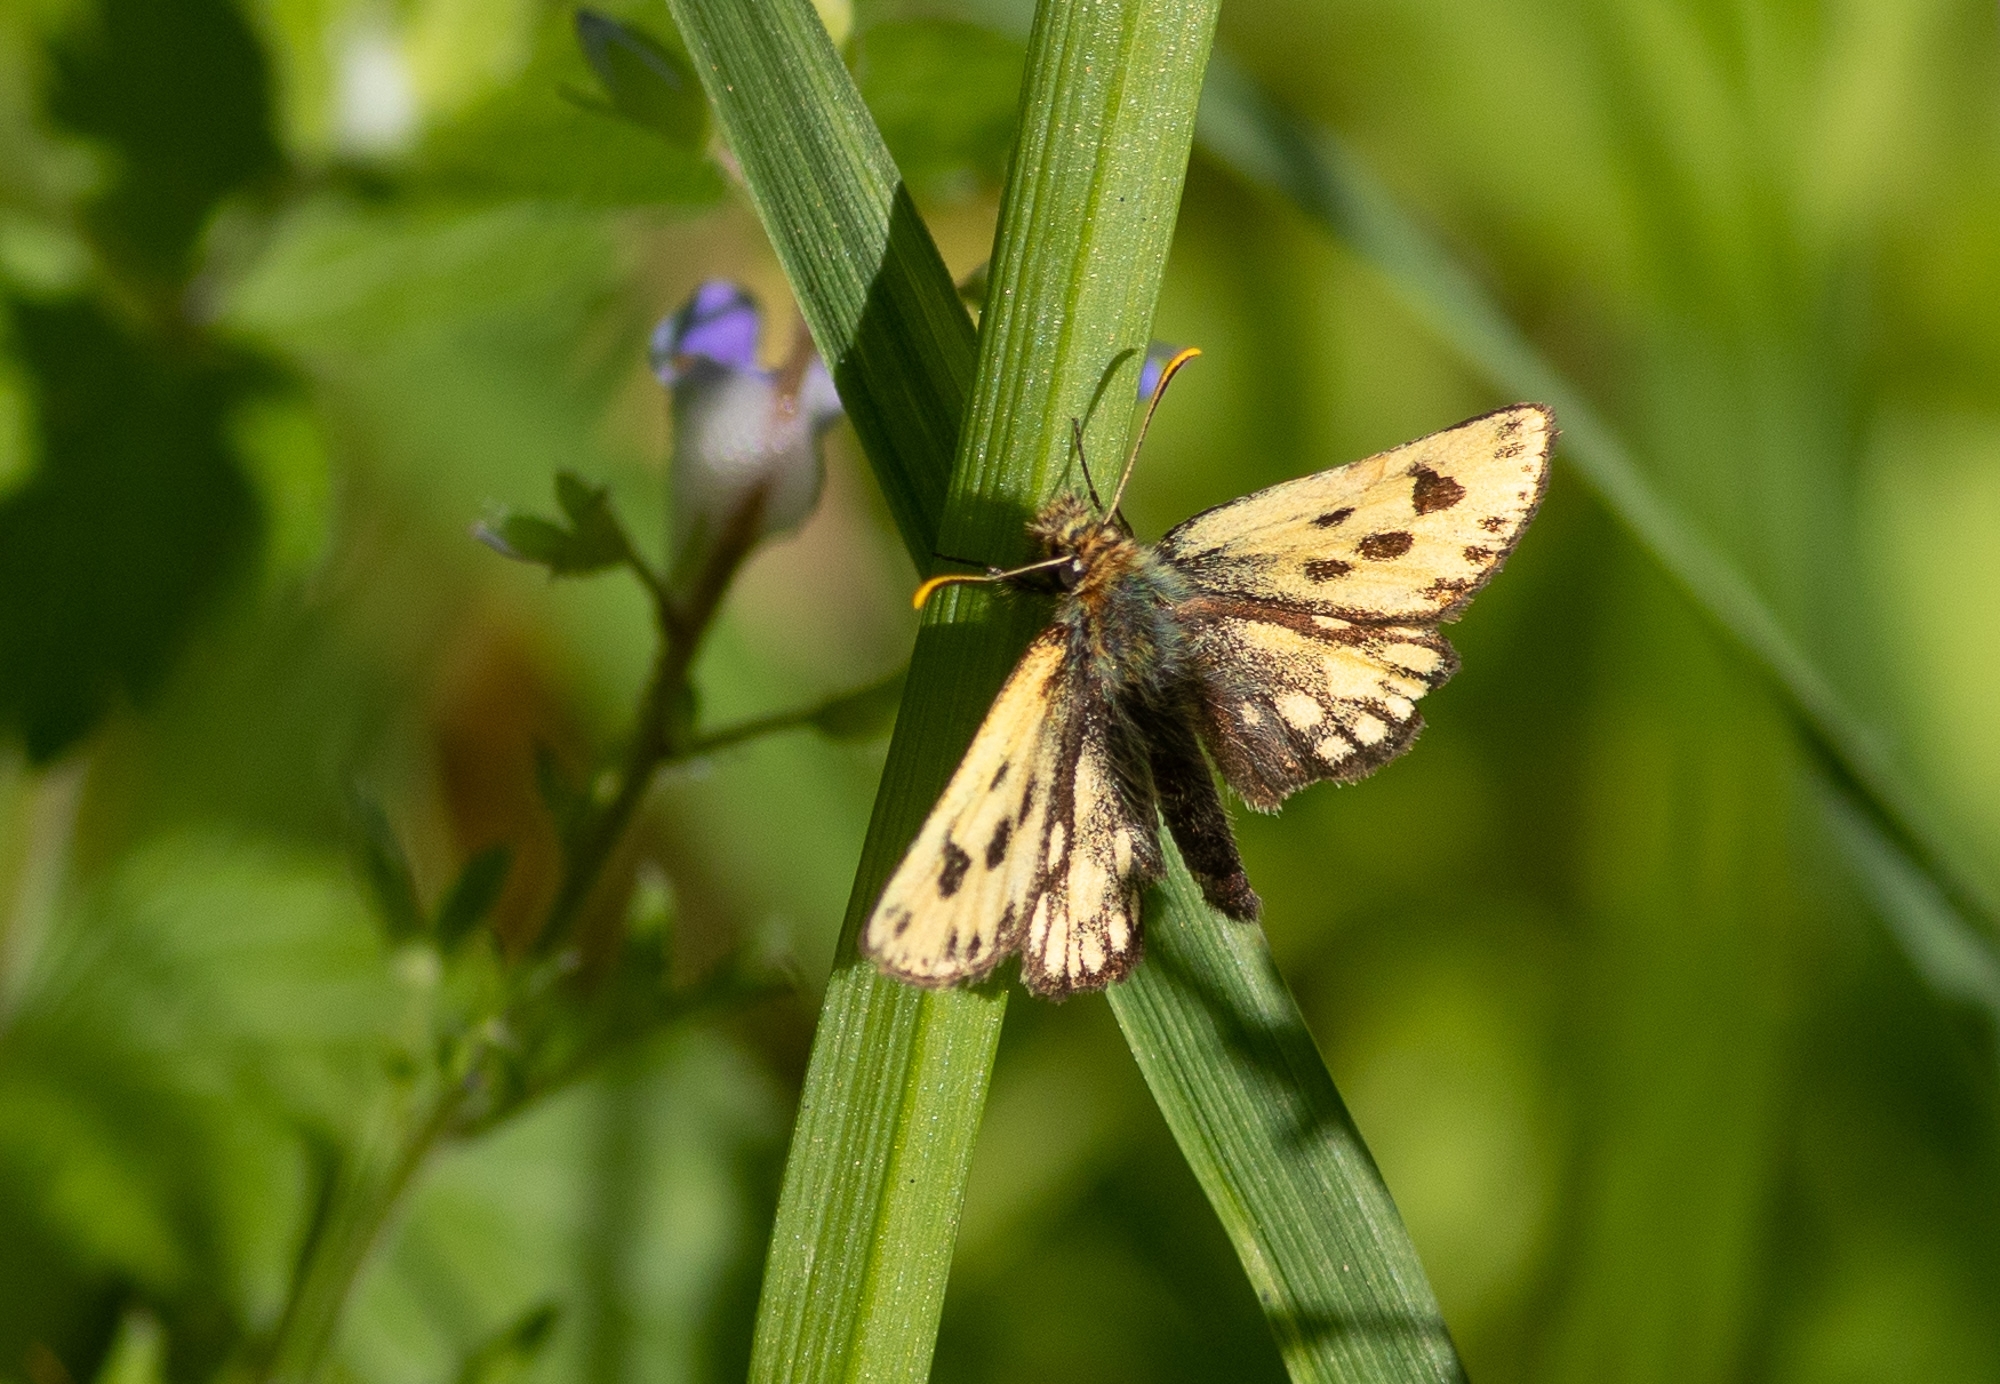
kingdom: Animalia
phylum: Arthropoda
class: Insecta
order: Lepidoptera
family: Hesperiidae
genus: Carterocephalus
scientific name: Carterocephalus silvicola
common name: Northern chequered skipper
